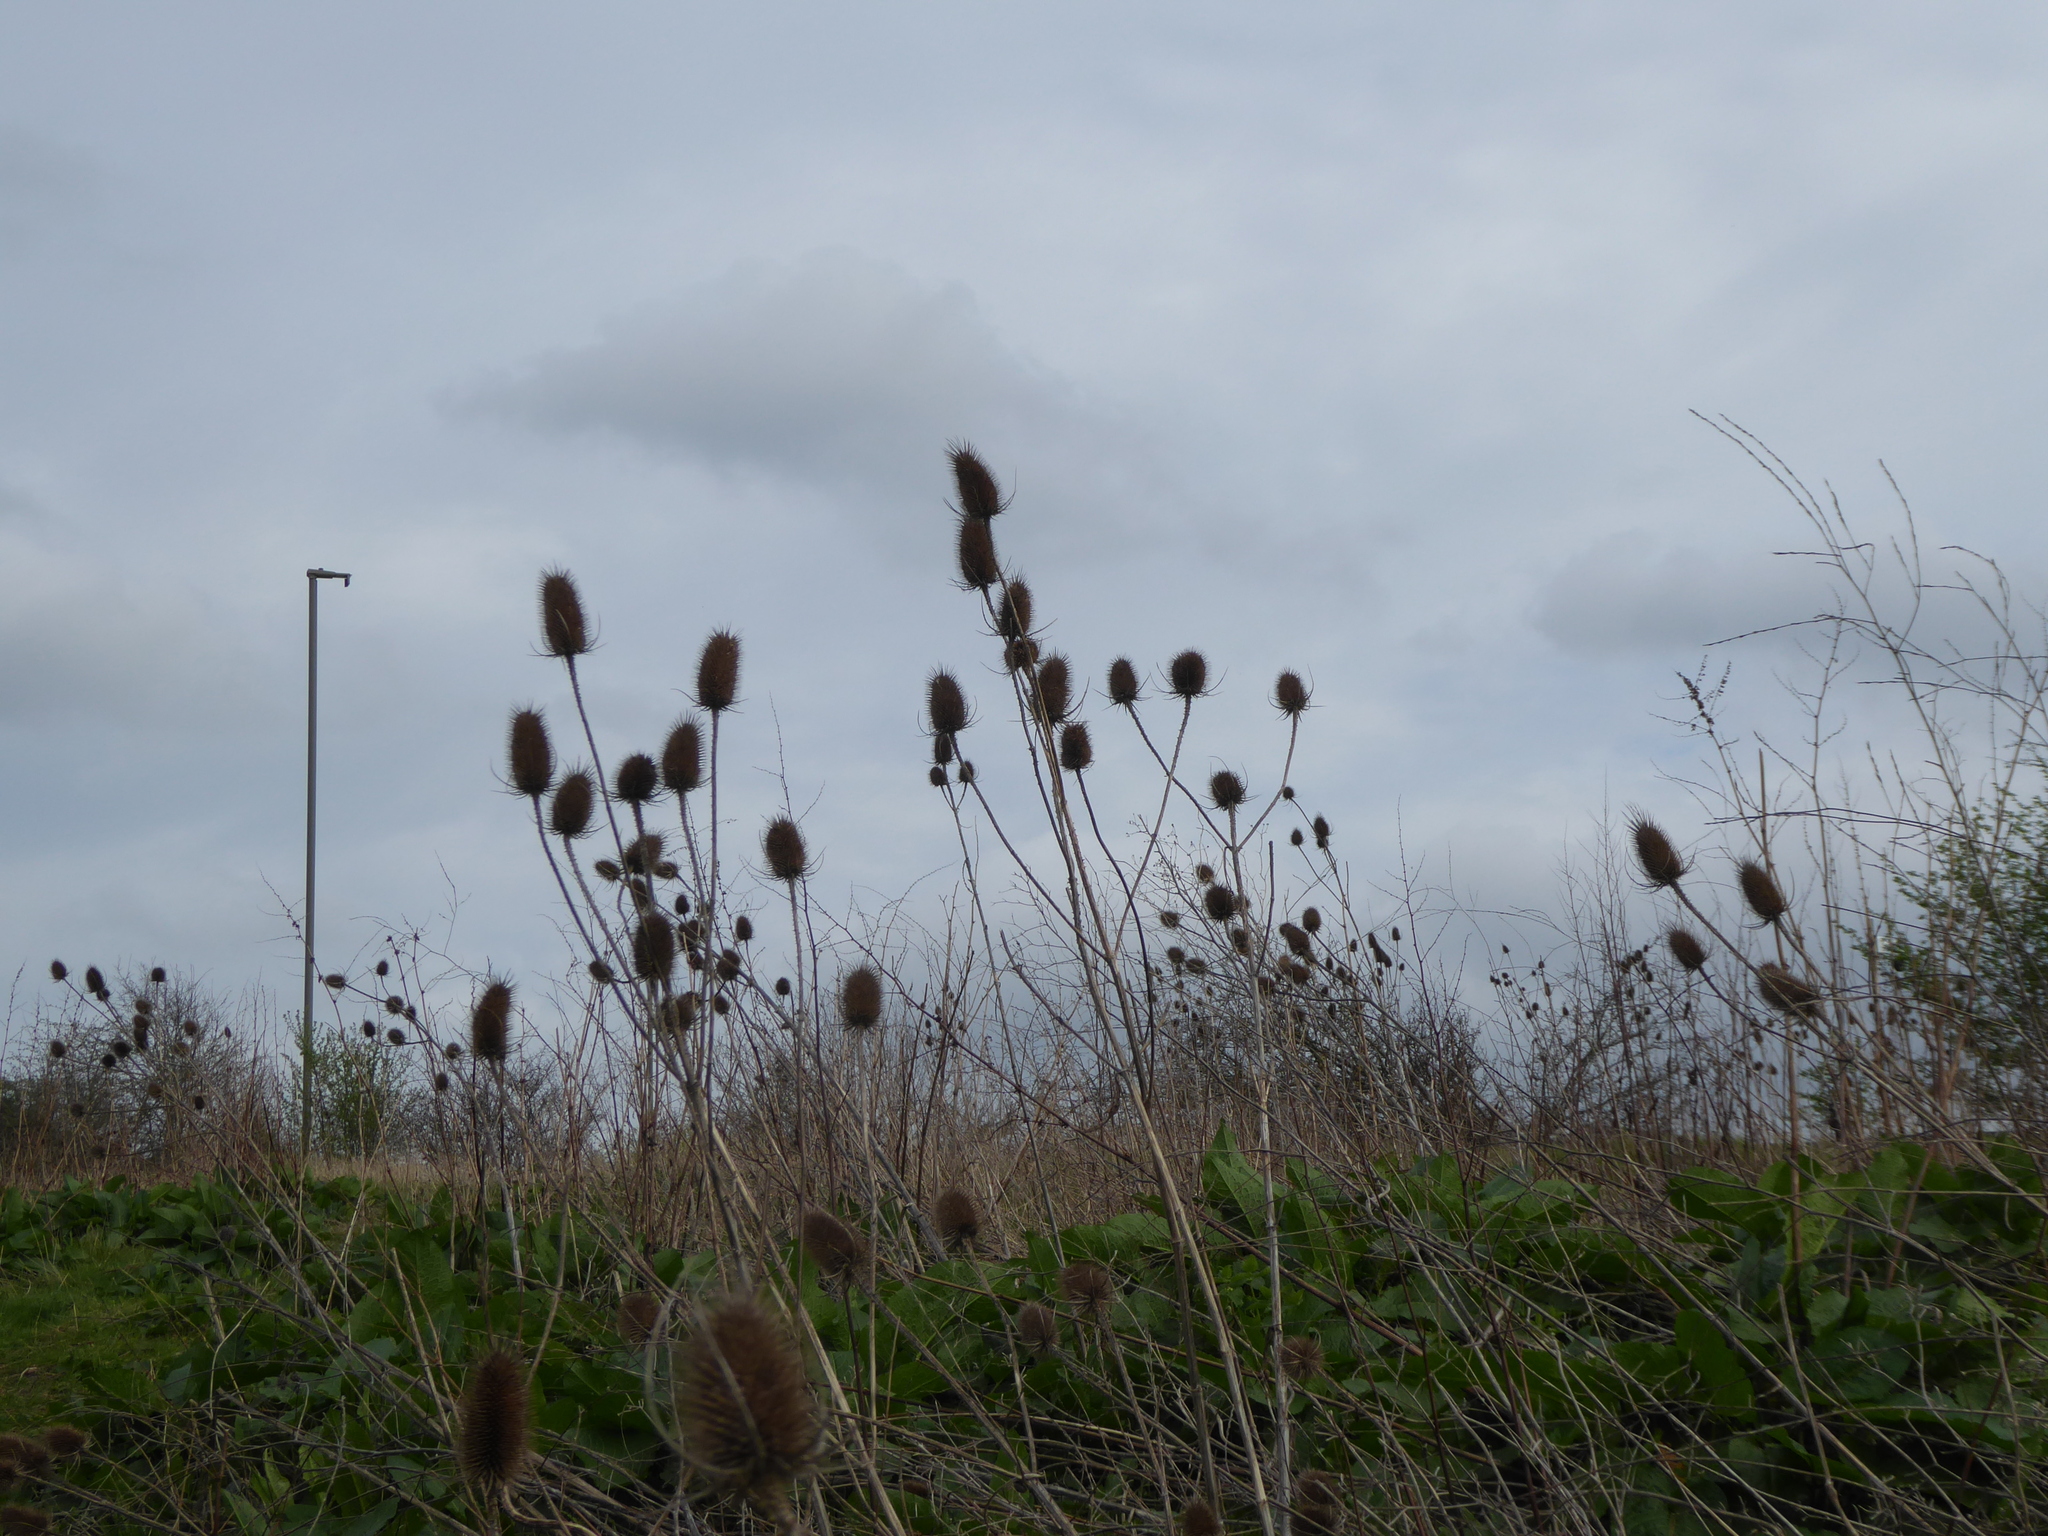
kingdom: Plantae
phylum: Tracheophyta
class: Magnoliopsida
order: Dipsacales
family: Caprifoliaceae
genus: Dipsacus
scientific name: Dipsacus fullonum
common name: Teasel
